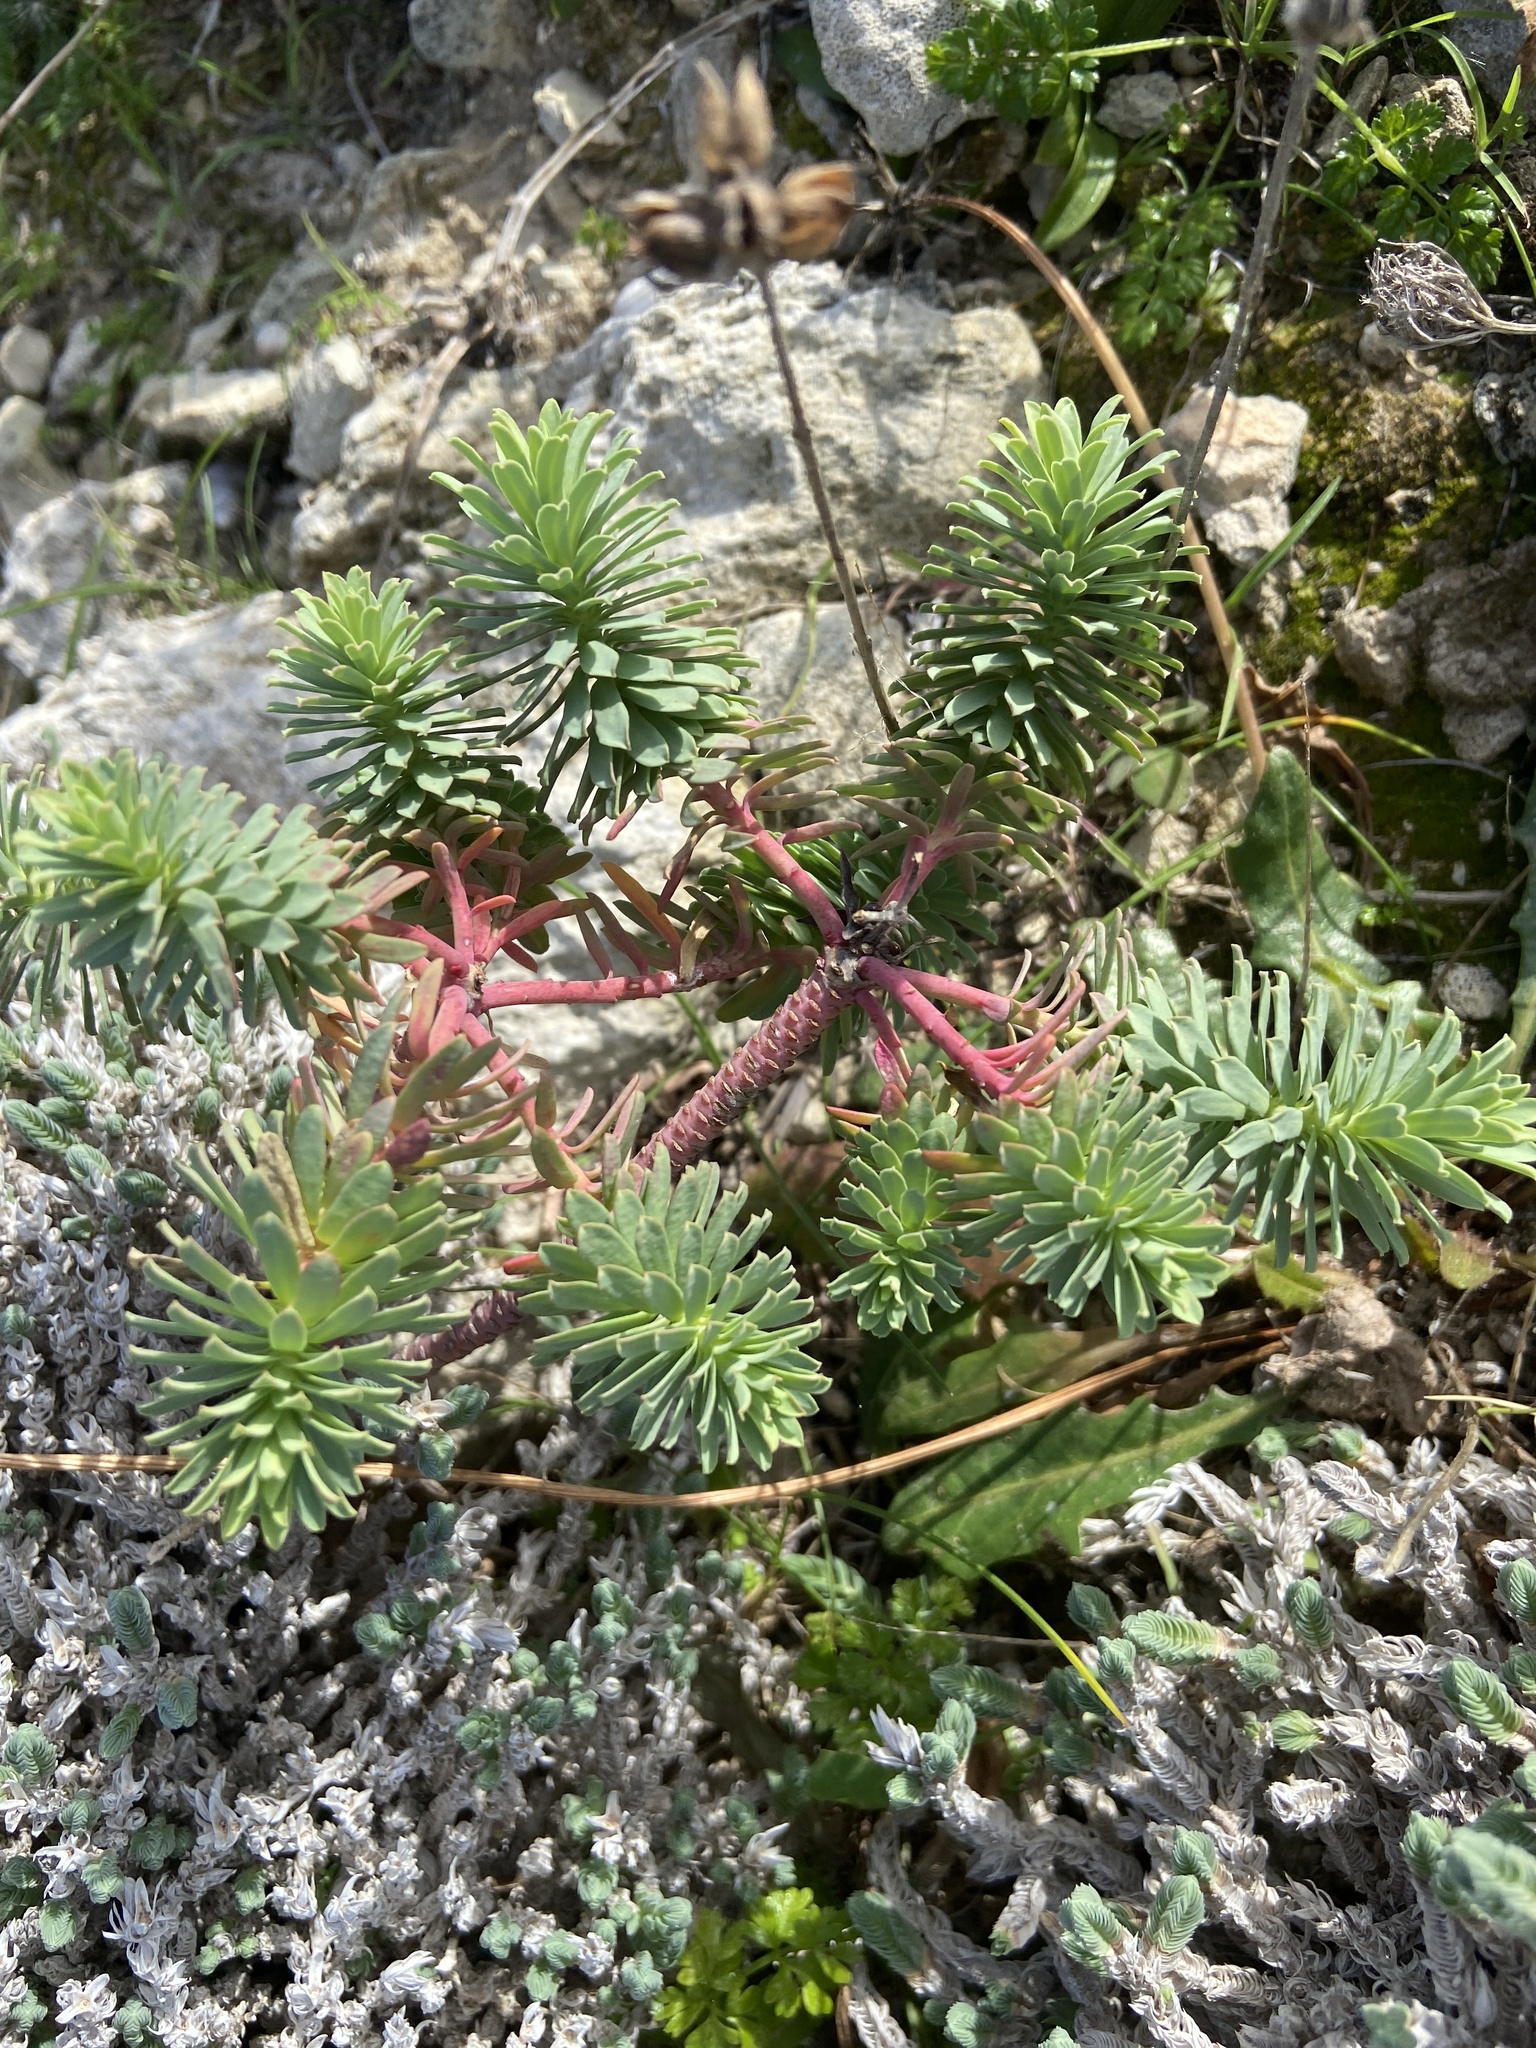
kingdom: Plantae
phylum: Tracheophyta
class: Magnoliopsida
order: Malpighiales
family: Euphorbiaceae
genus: Euphorbia
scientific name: Euphorbia segetalis
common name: Corn spurge
